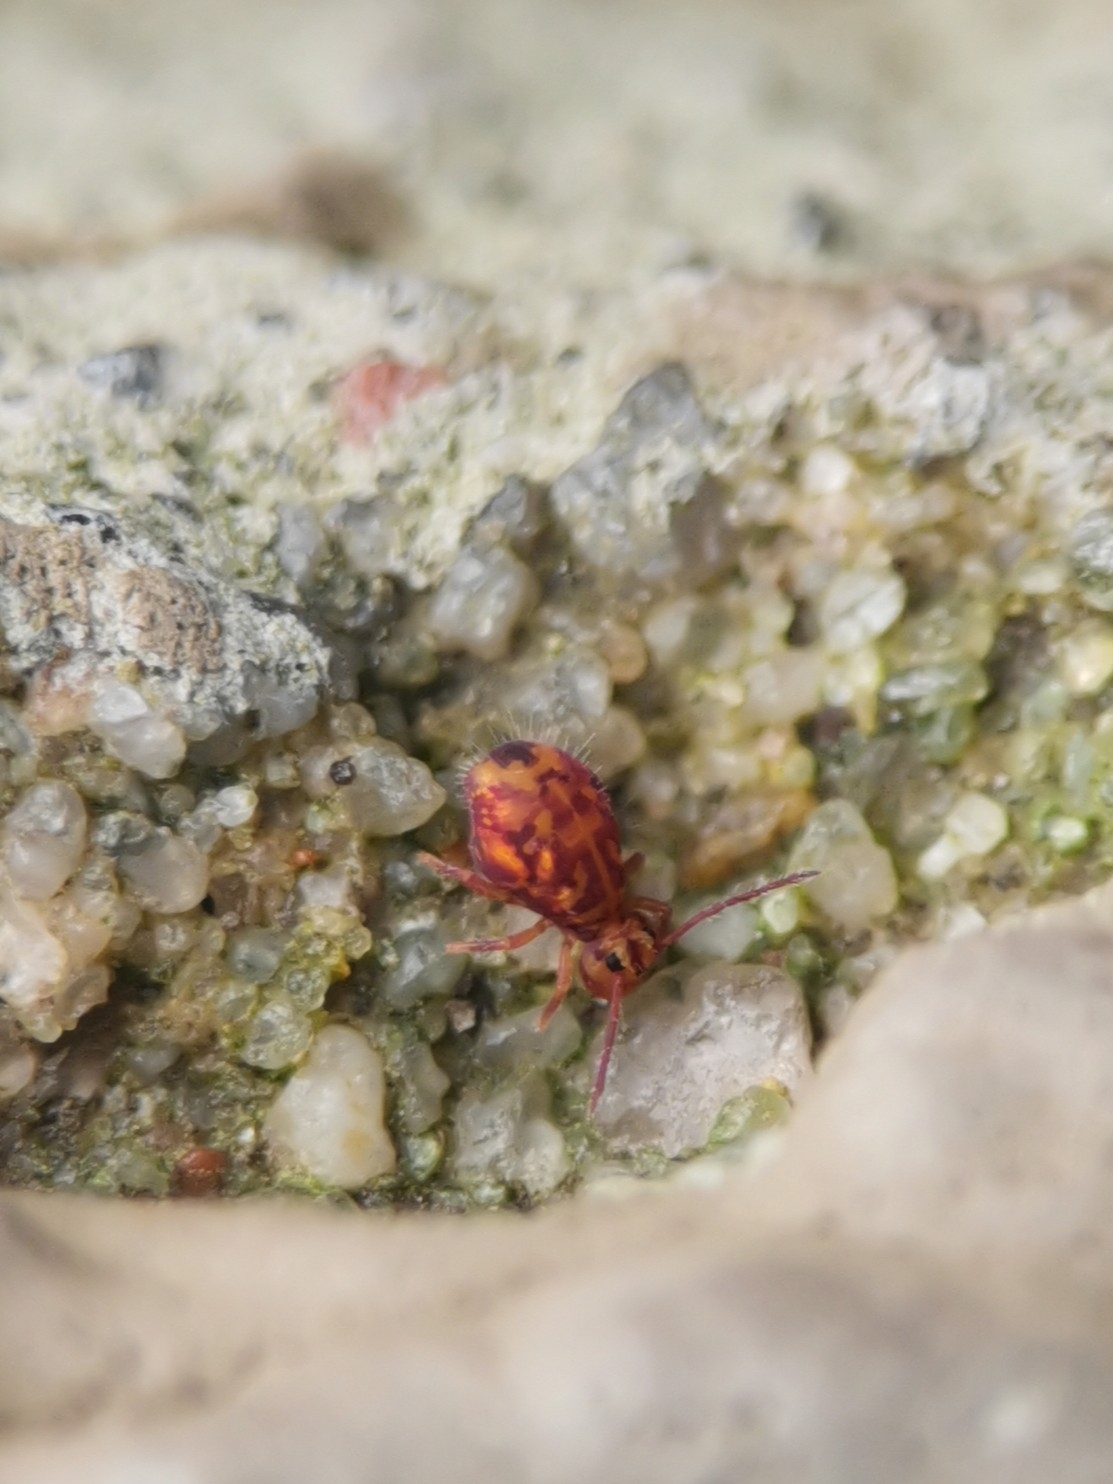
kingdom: Animalia
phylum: Arthropoda
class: Collembola
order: Symphypleona
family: Dicyrtomidae
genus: Dicyrtomina
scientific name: Dicyrtomina ornata
